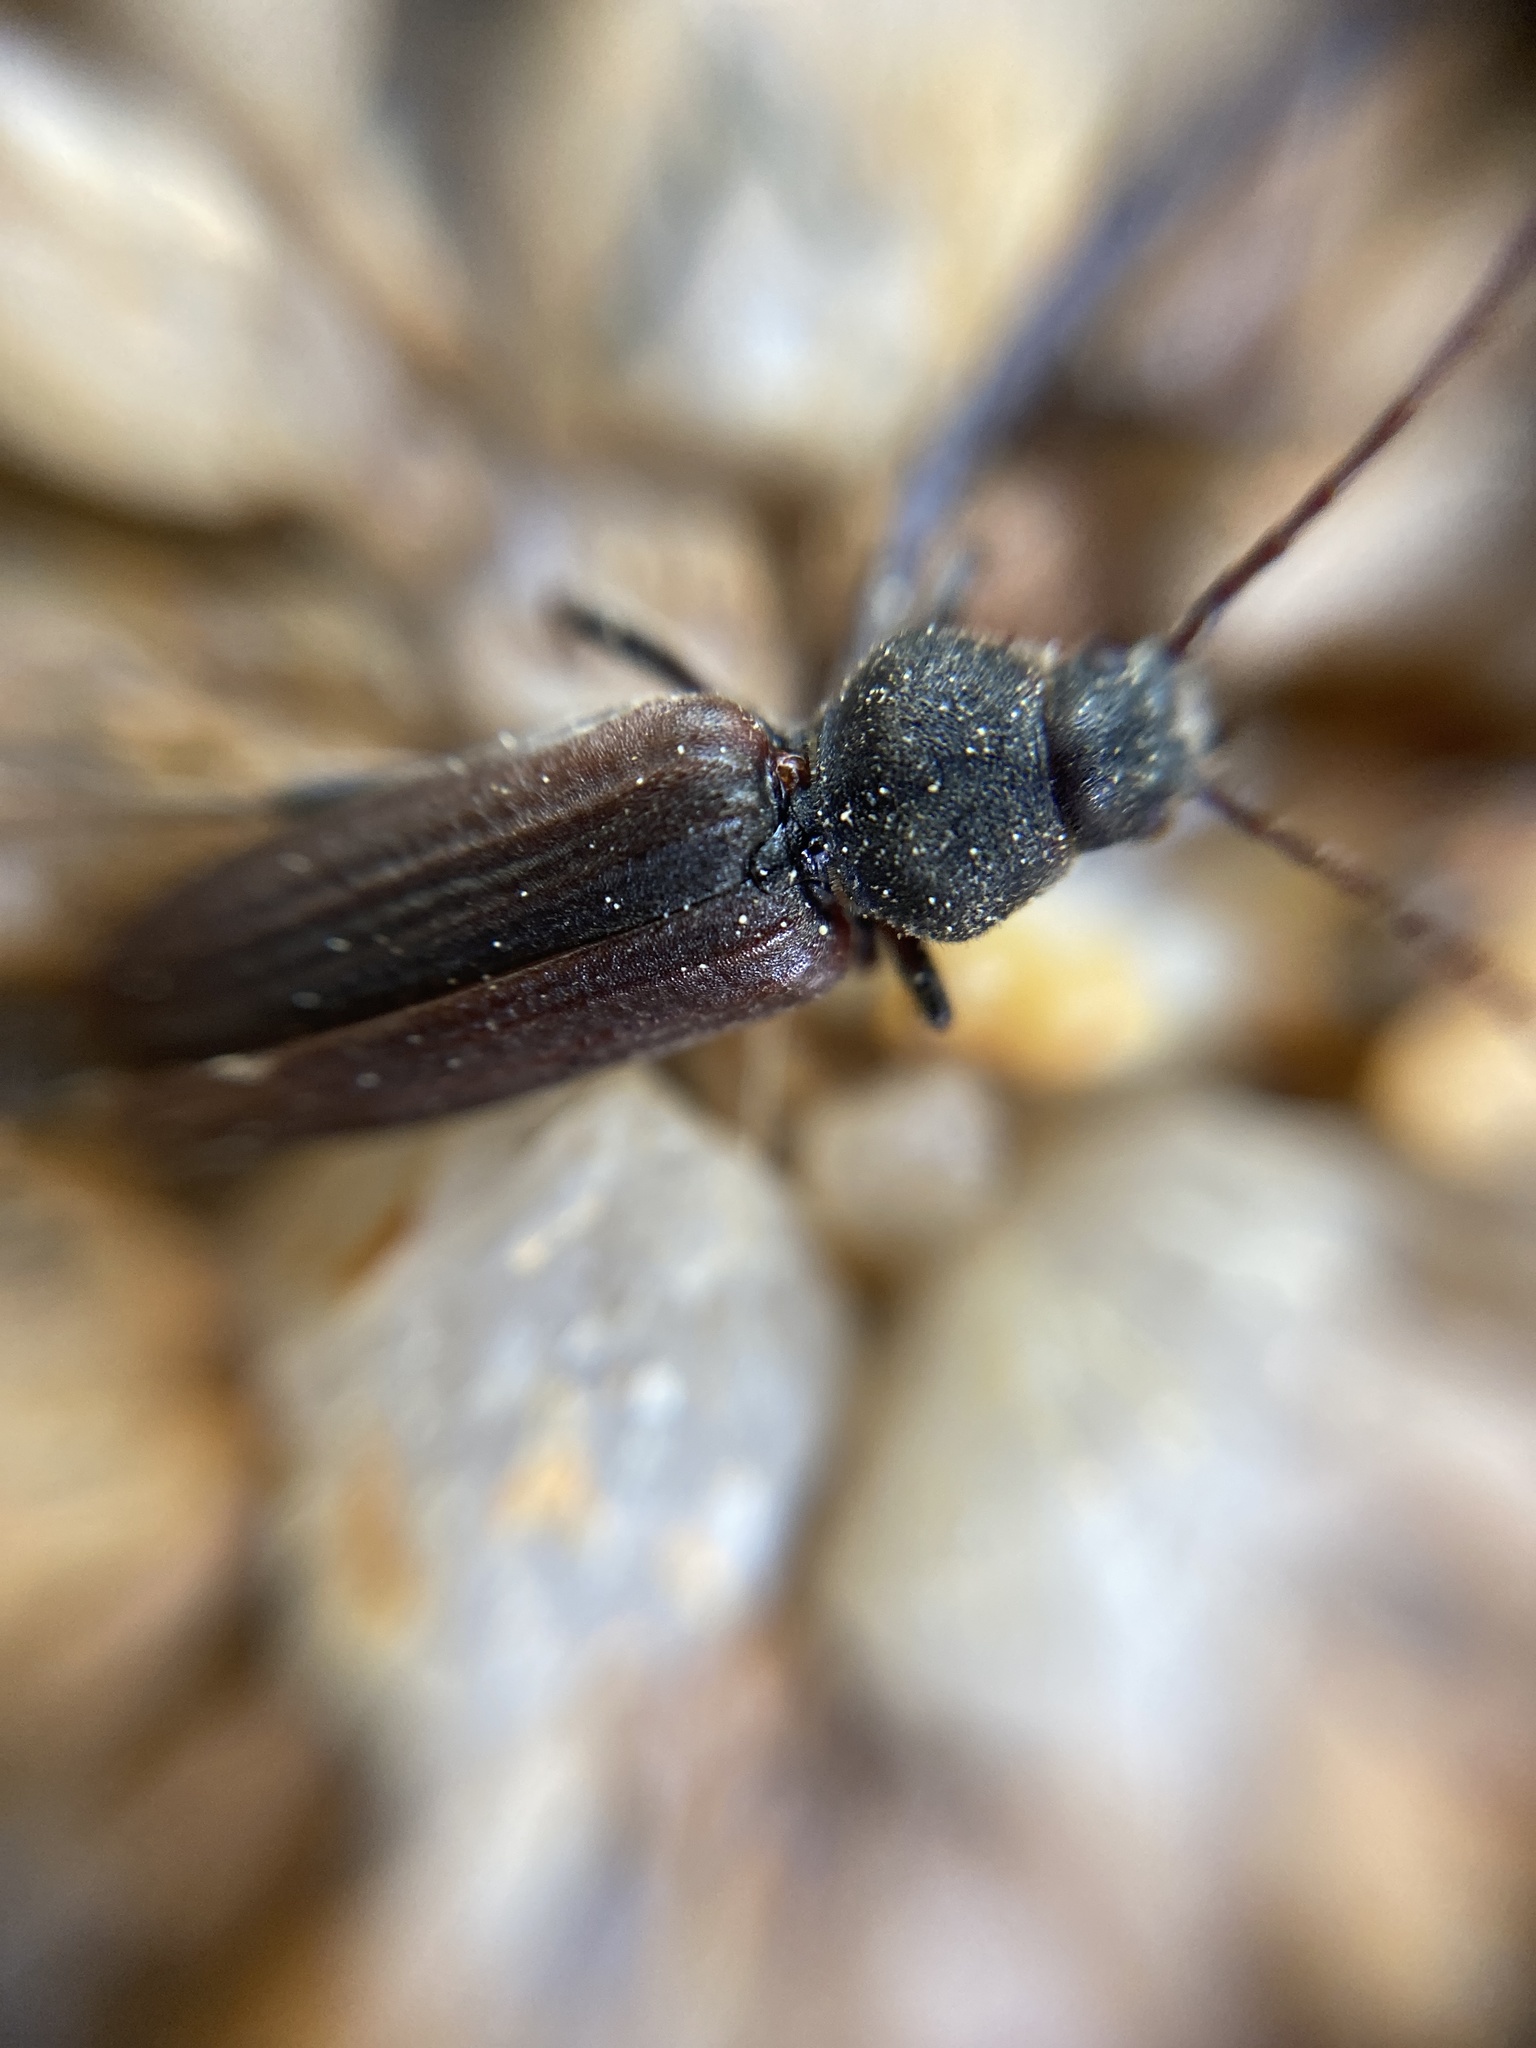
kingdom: Animalia
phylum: Arthropoda
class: Insecta
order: Coleoptera
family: Cerambycidae
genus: Asemum
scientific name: Asemum striatum
